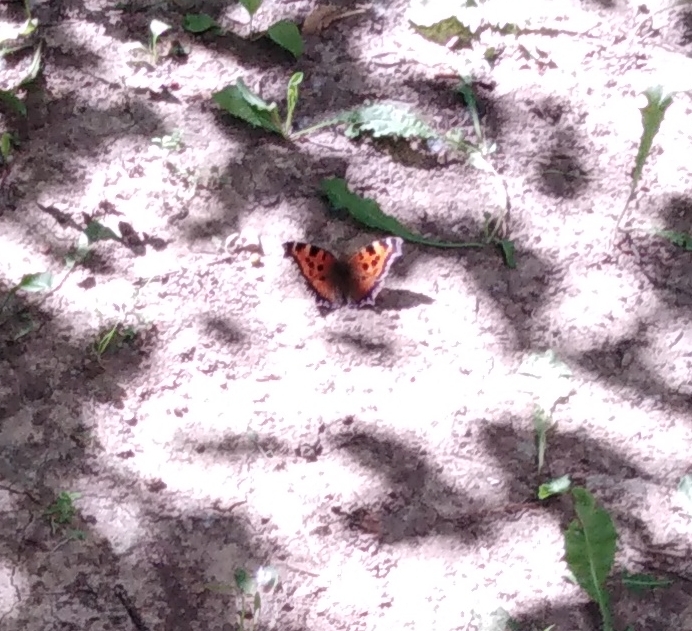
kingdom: Animalia
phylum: Arthropoda
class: Insecta
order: Lepidoptera
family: Nymphalidae
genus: Nymphalis
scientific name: Nymphalis xanthomelas
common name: Scarce tortoiseshell
